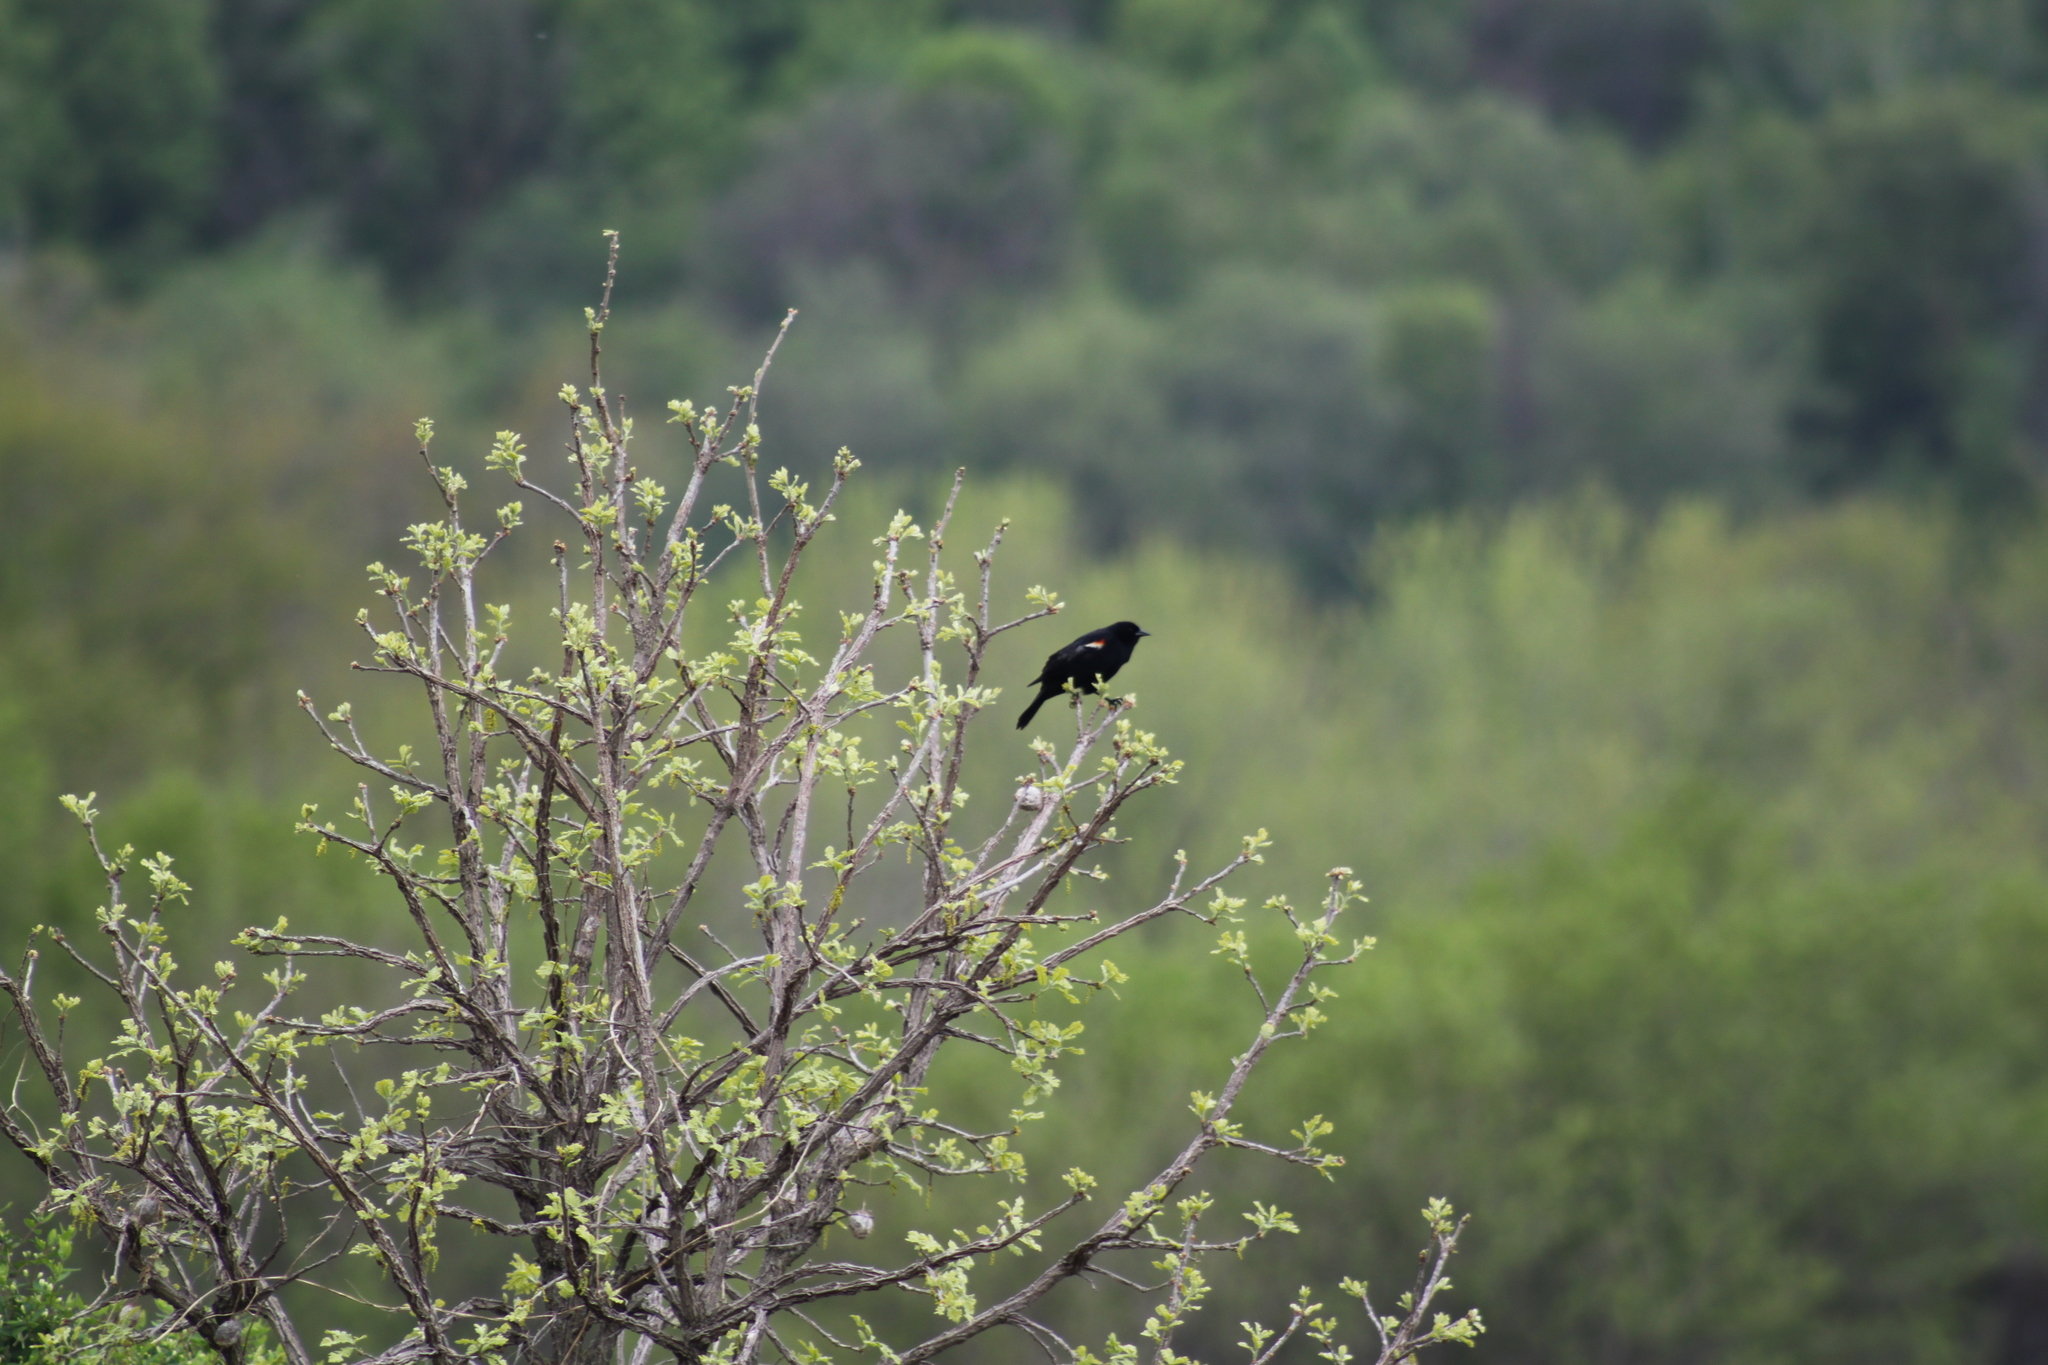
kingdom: Animalia
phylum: Chordata
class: Aves
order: Passeriformes
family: Icteridae
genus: Agelaius
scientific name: Agelaius phoeniceus
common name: Red-winged blackbird
